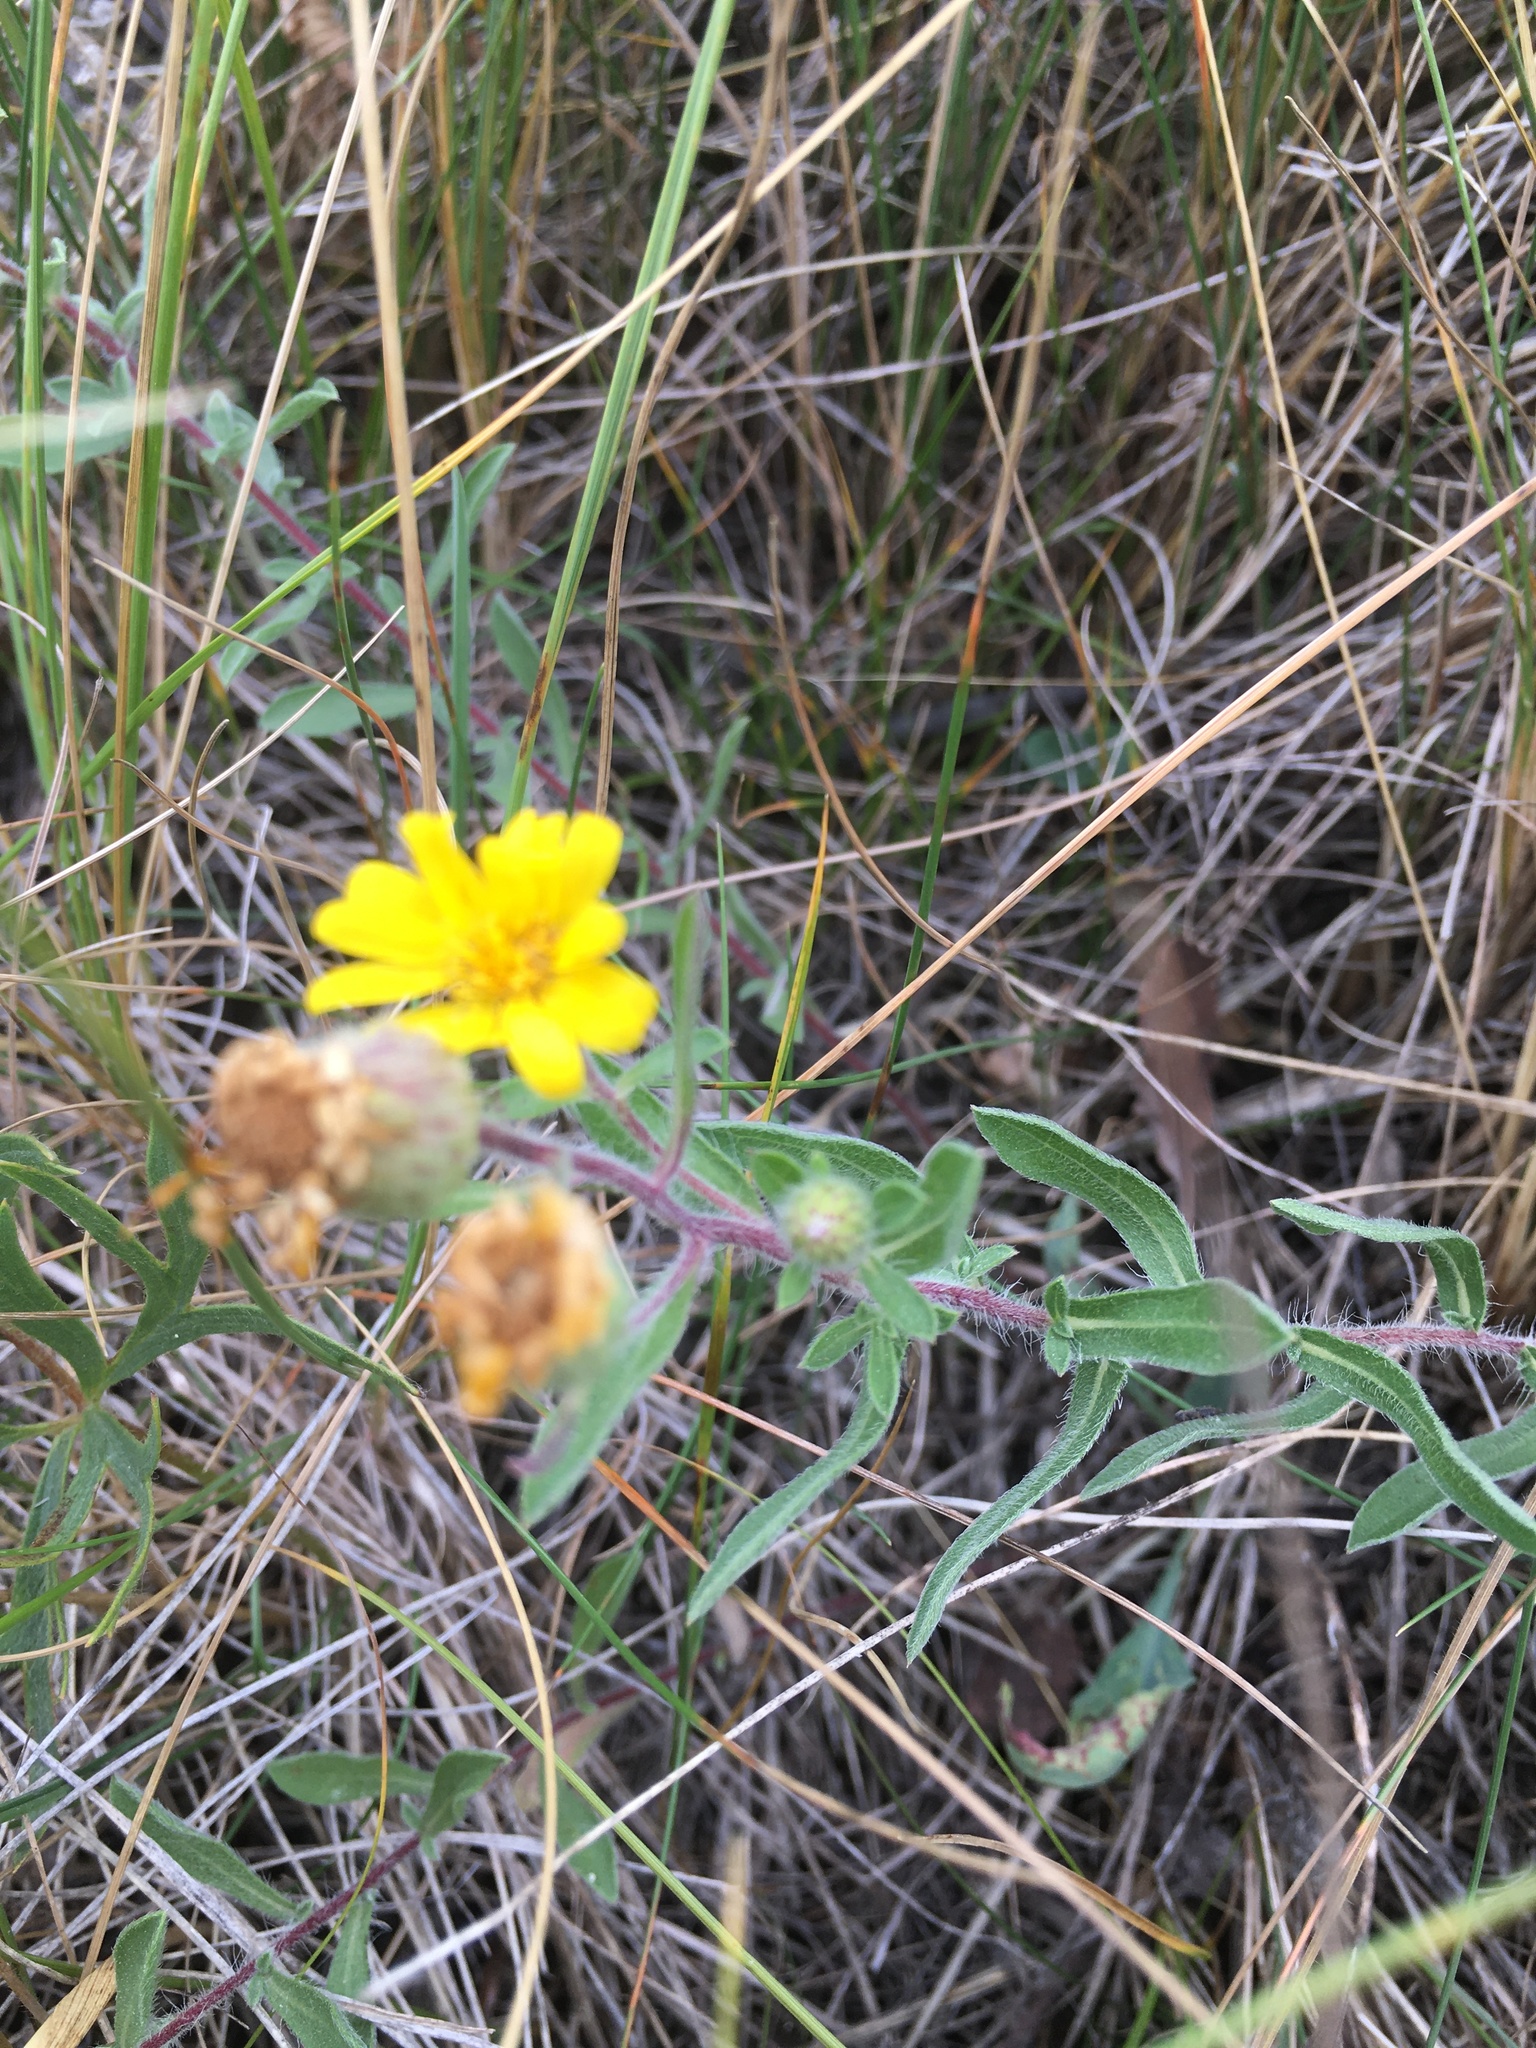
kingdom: Plantae
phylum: Tracheophyta
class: Magnoliopsida
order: Asterales
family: Asteraceae
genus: Heterotheca
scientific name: Heterotheca villosa
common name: Hairy false goldenaster
